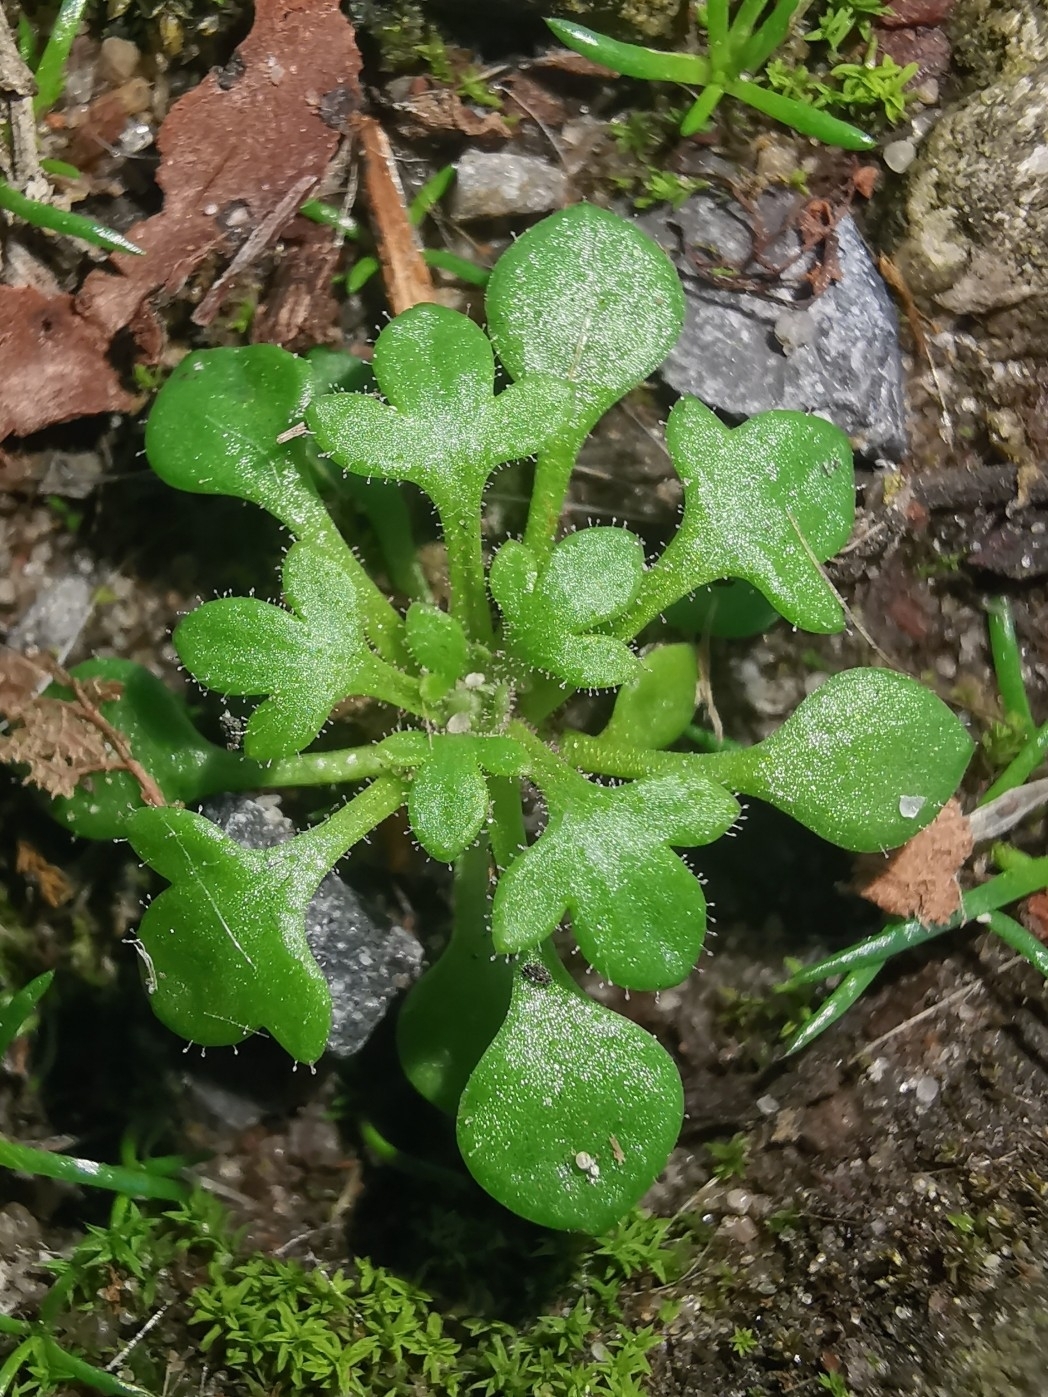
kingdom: Plantae
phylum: Tracheophyta
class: Magnoliopsida
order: Saxifragales
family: Saxifragaceae
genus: Saxifraga
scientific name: Saxifraga tridactylites
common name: Rue-leaved saxifrage
